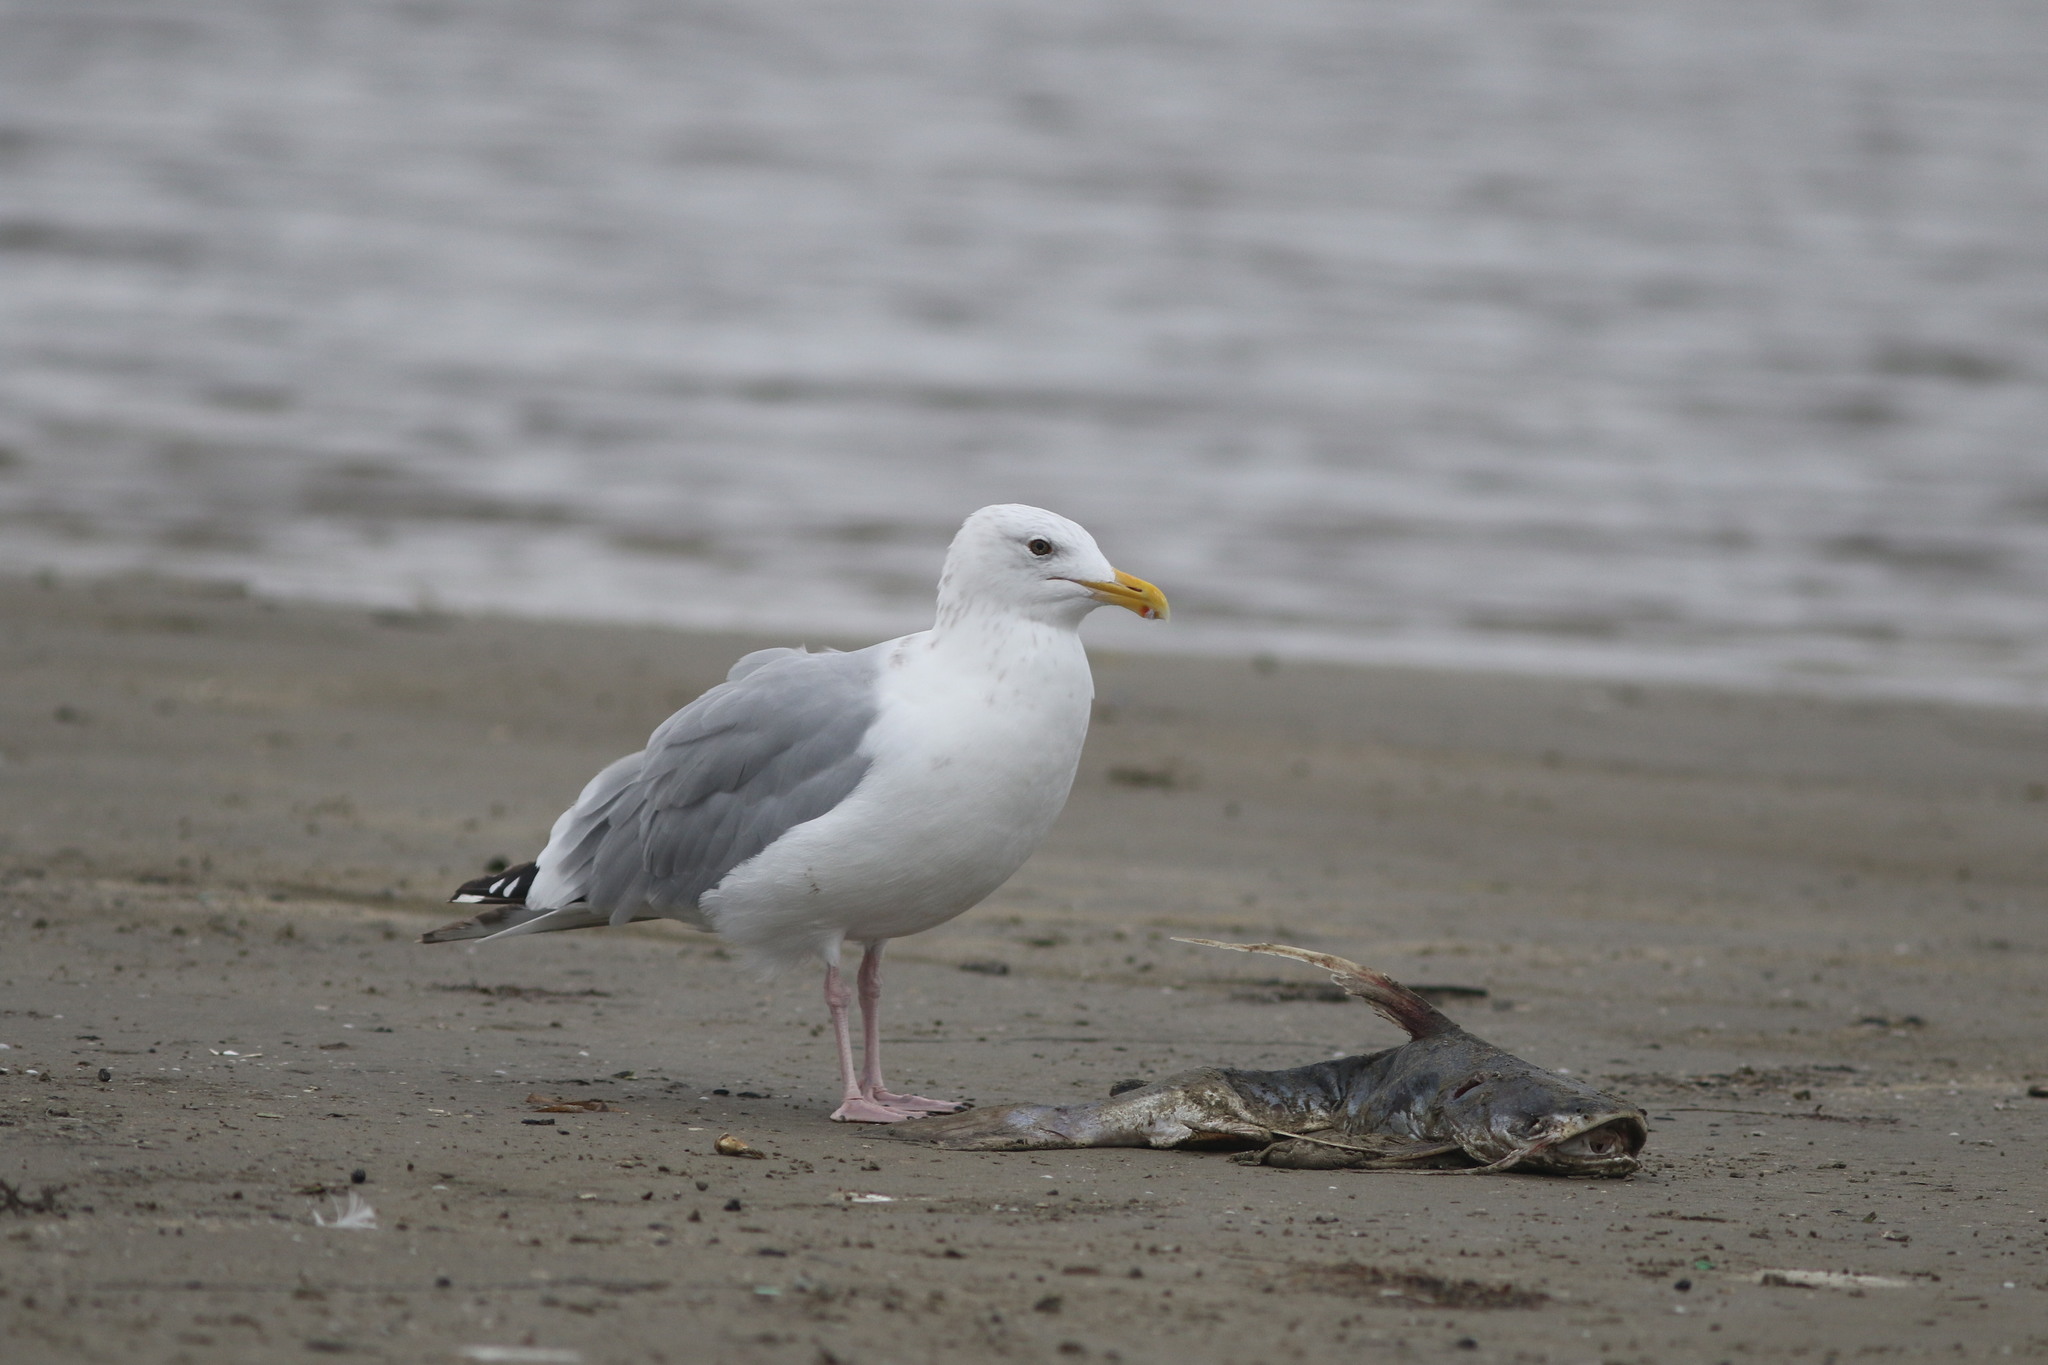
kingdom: Animalia
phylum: Chordata
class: Aves
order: Charadriiformes
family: Laridae
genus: Larus
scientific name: Larus argentatus
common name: Herring gull
